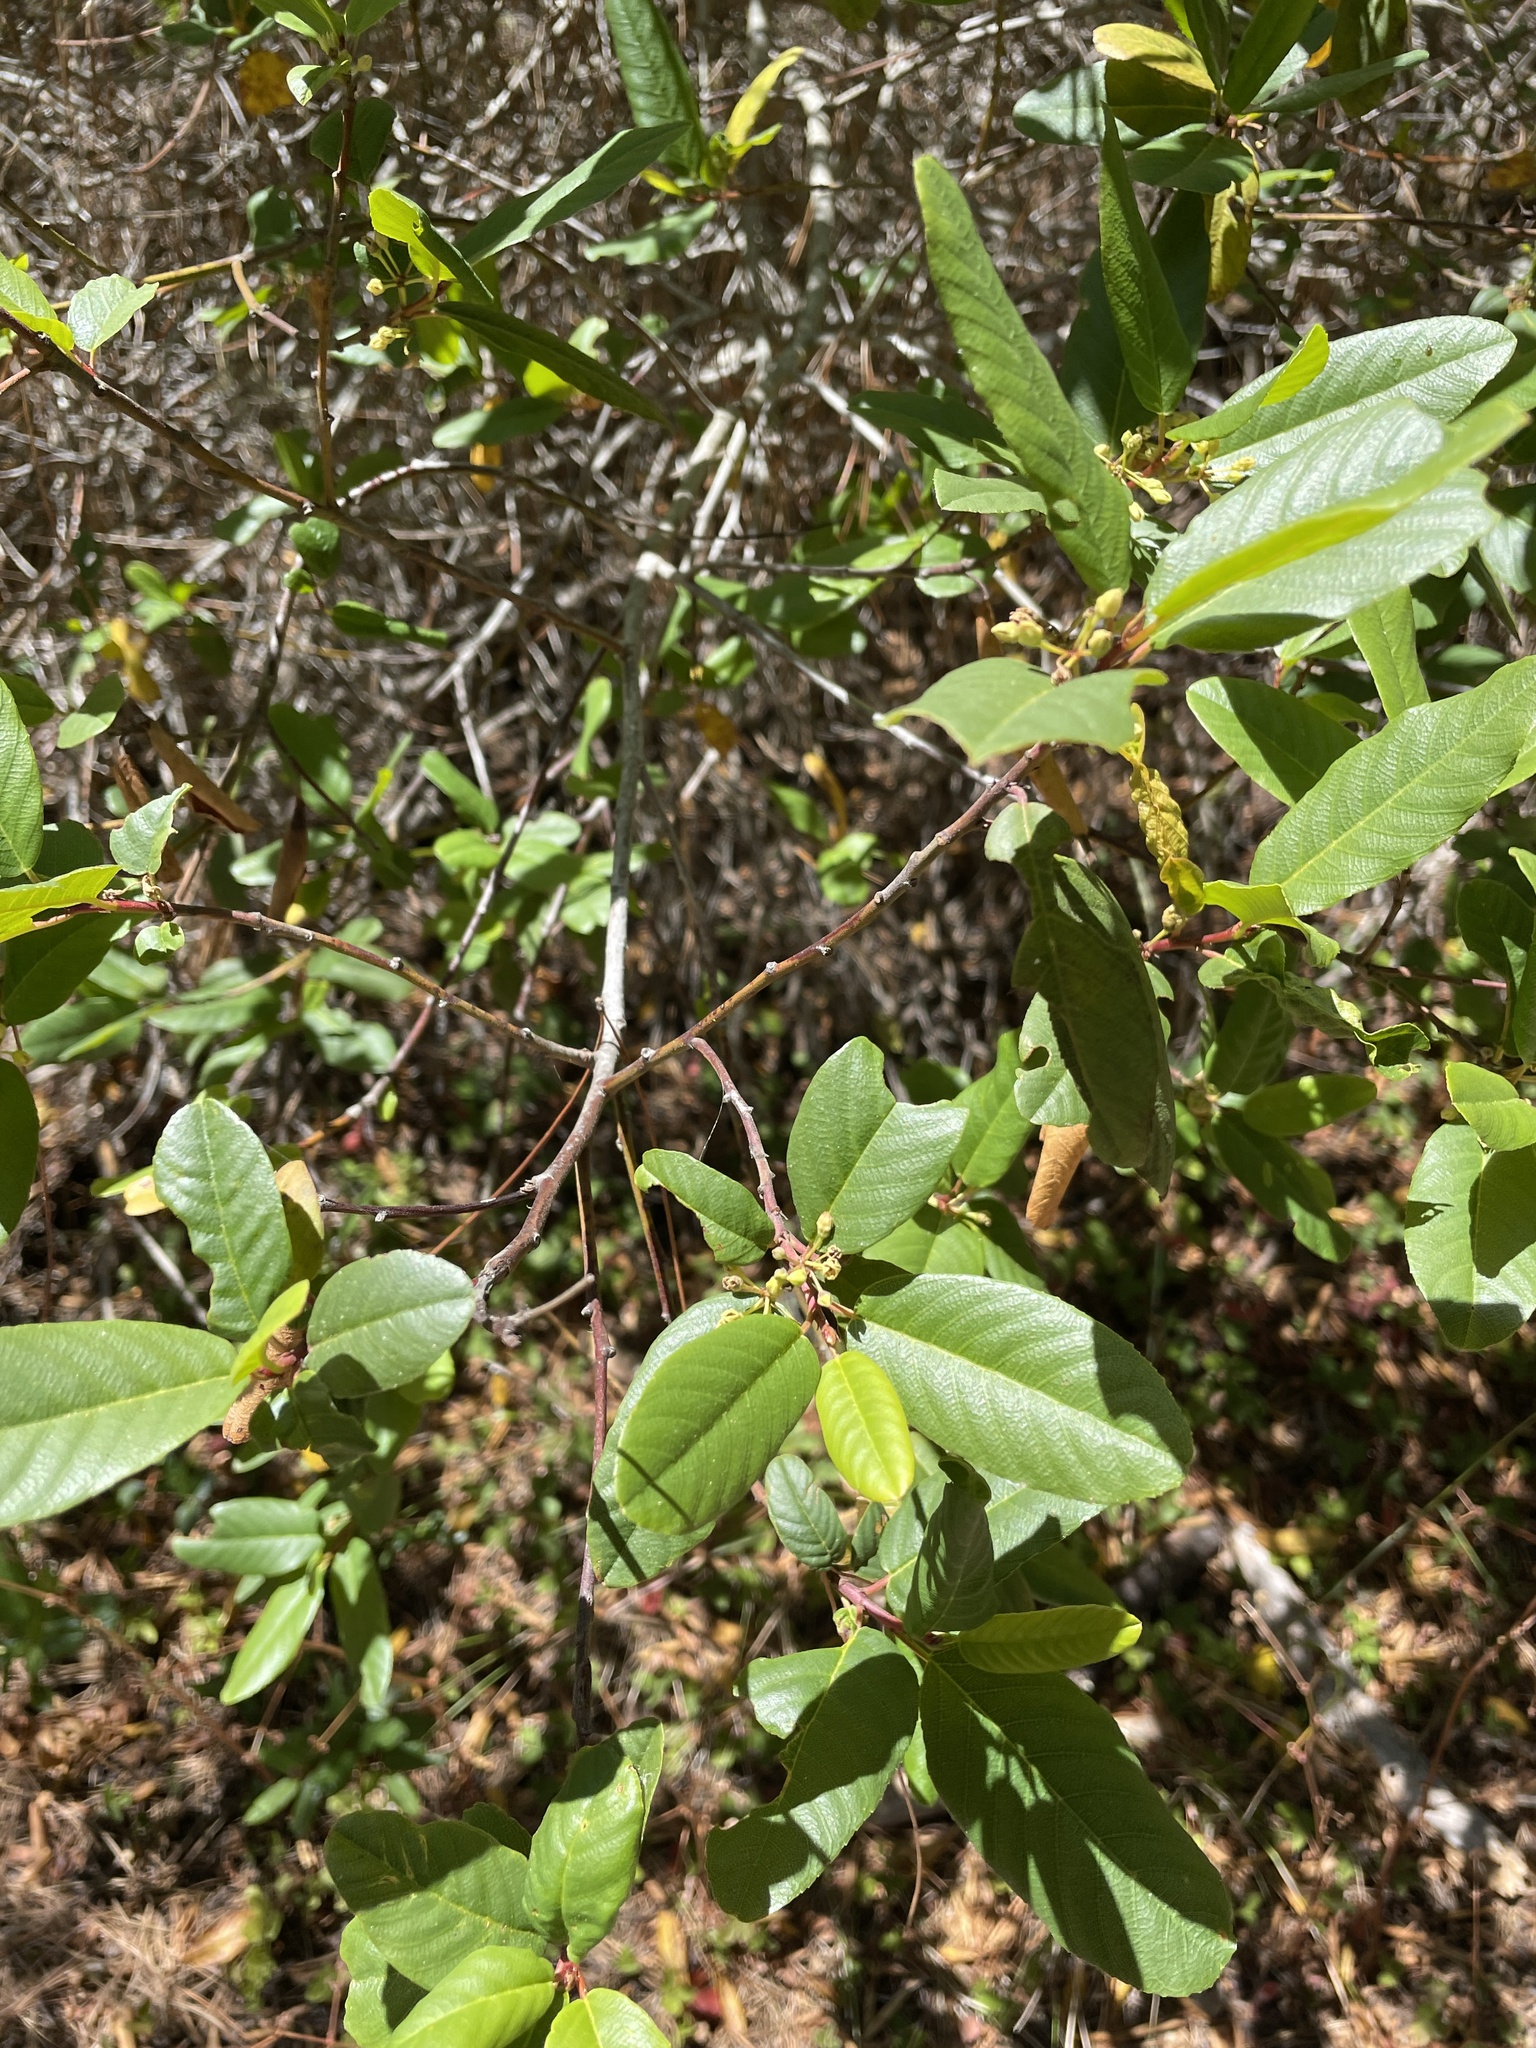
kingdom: Plantae
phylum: Tracheophyta
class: Magnoliopsida
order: Rosales
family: Rhamnaceae
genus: Frangula
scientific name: Frangula californica
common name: California buckthorn
